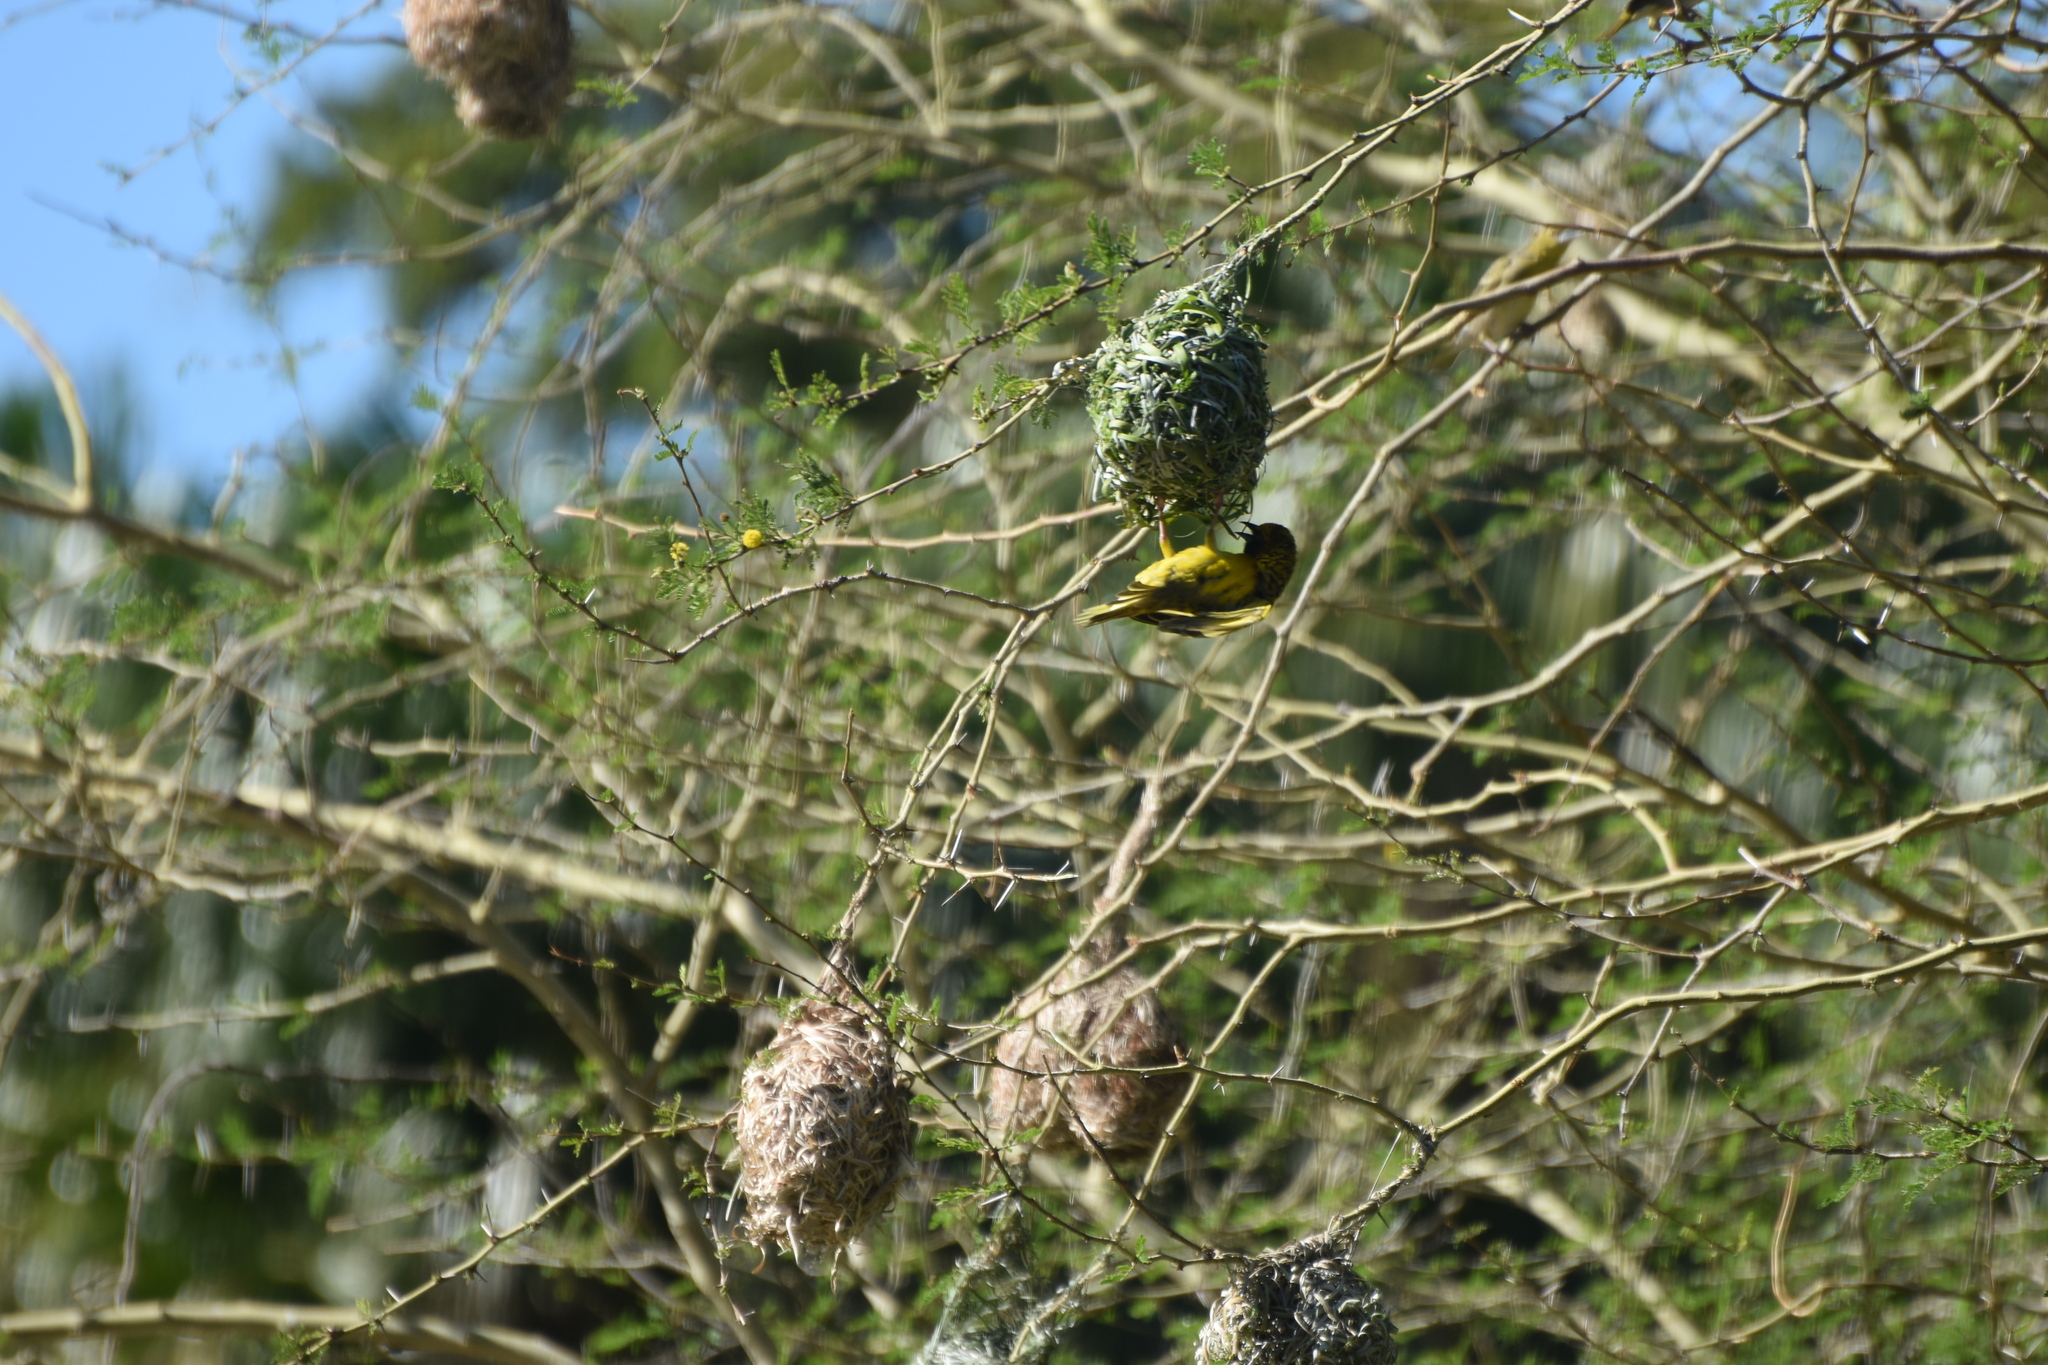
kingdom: Animalia
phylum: Chordata
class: Aves
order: Passeriformes
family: Ploceidae
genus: Ploceus
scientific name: Ploceus cucullatus
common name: Village weaver
